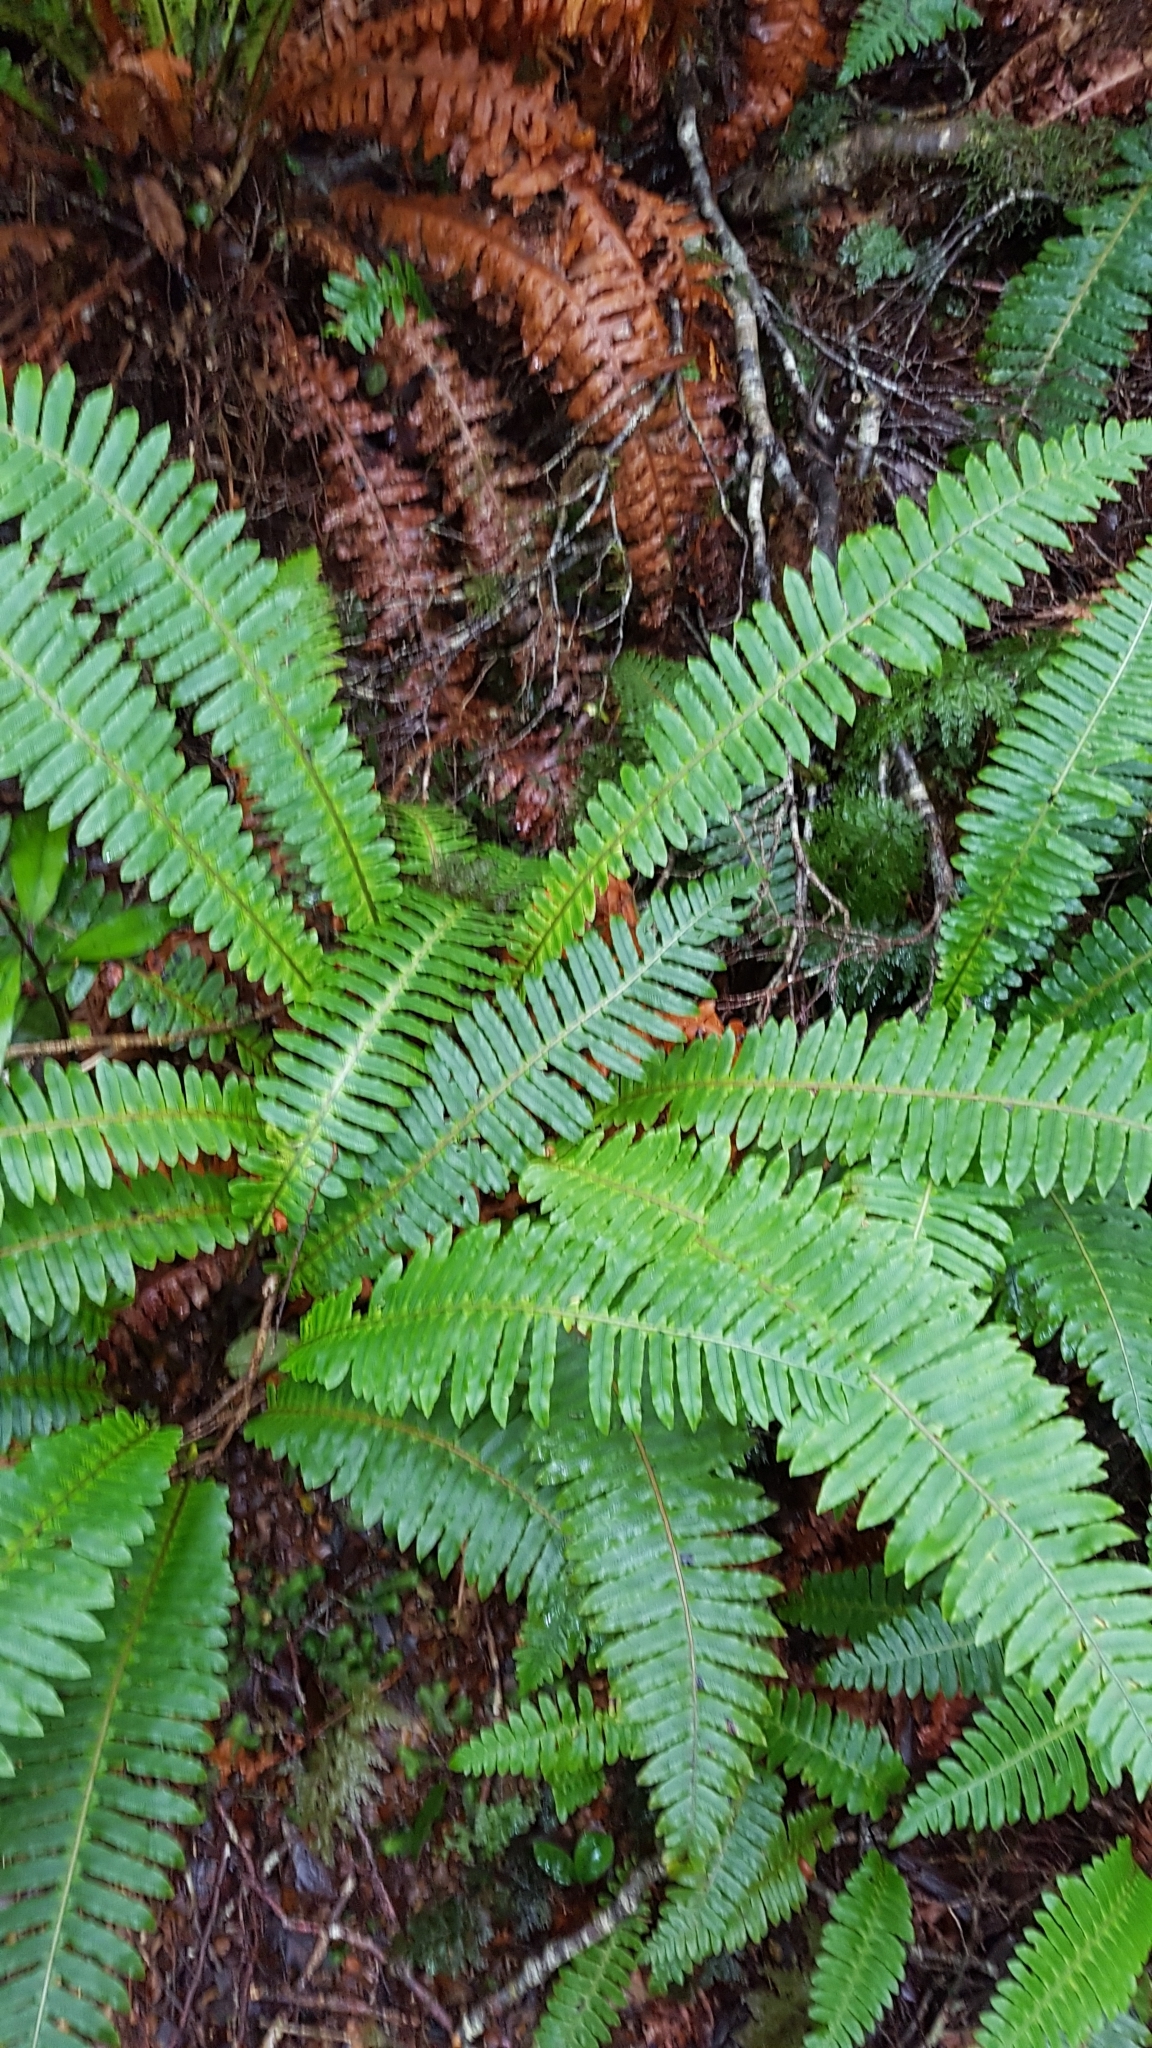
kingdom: Plantae
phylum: Tracheophyta
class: Polypodiopsida
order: Polypodiales
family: Blechnaceae
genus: Lomaria
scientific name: Lomaria discolor
